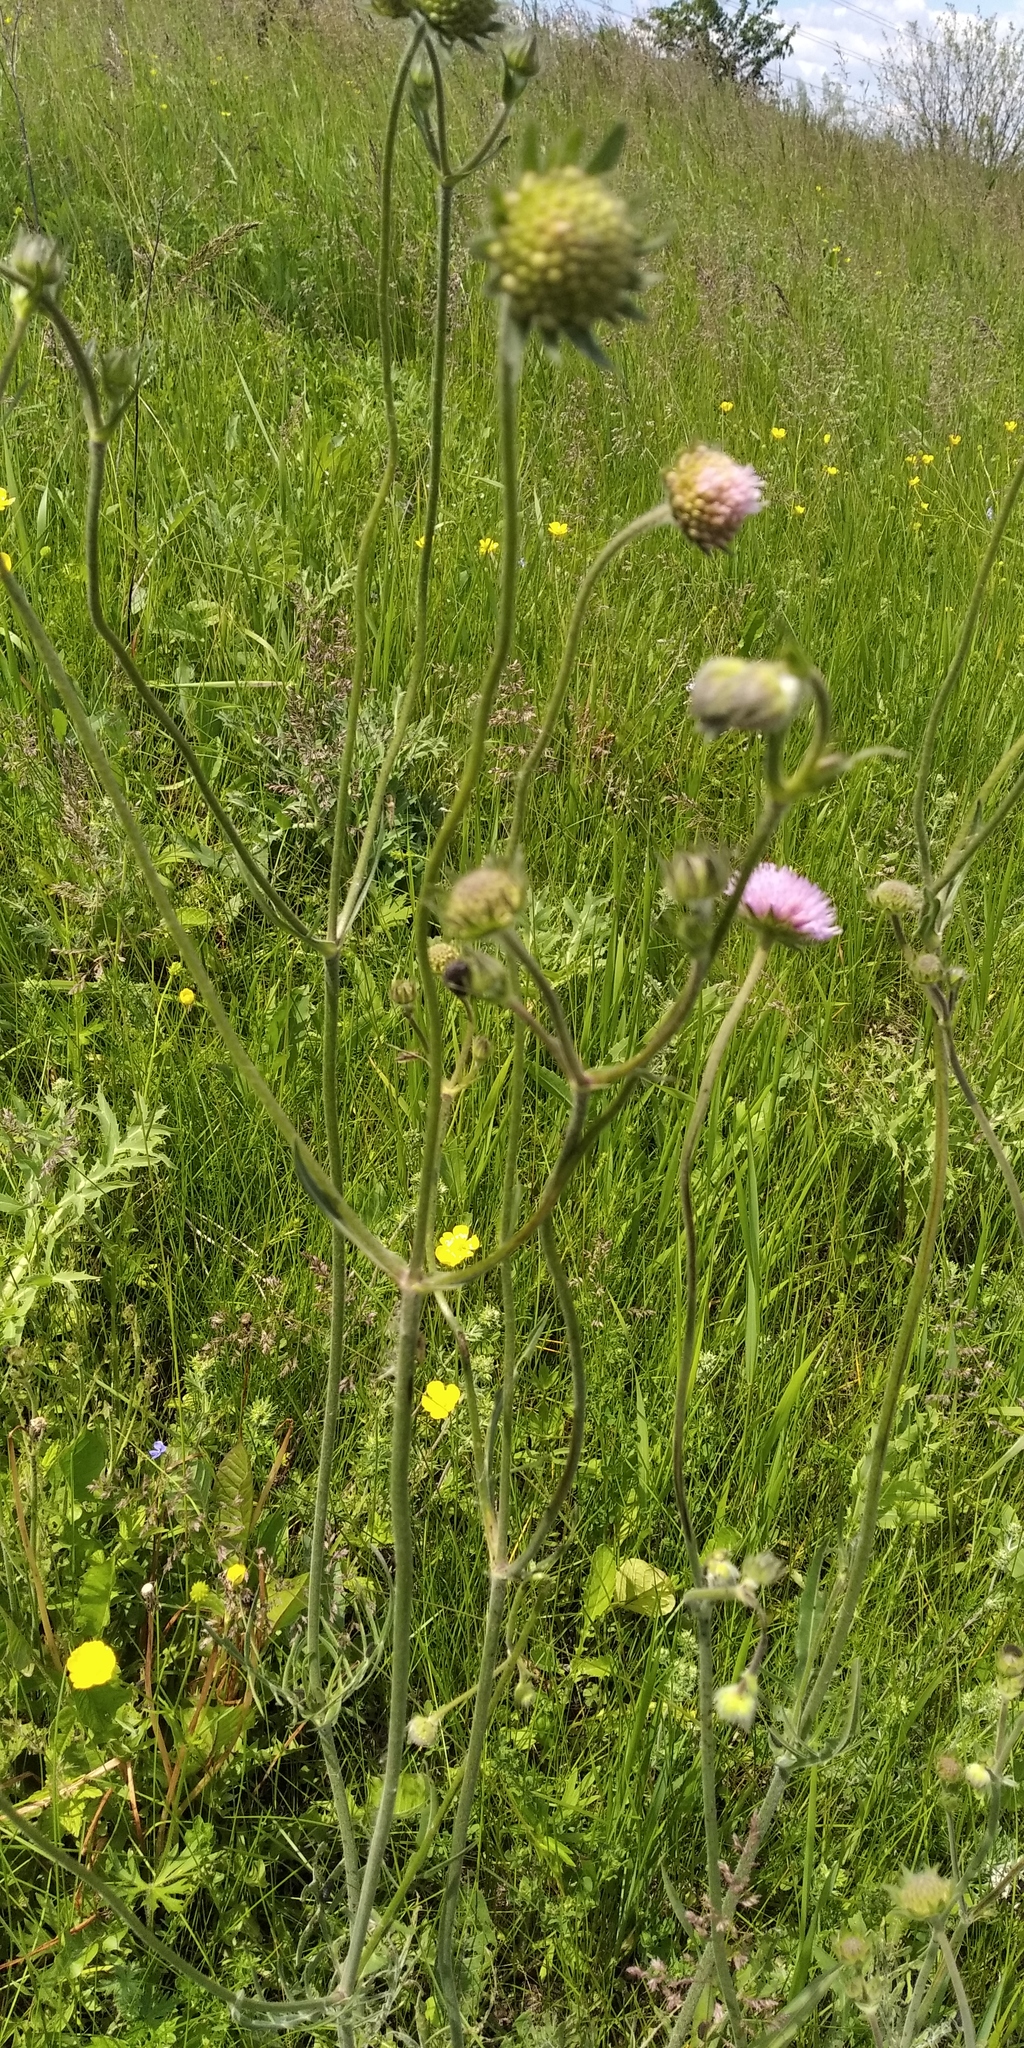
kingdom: Plantae
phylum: Tracheophyta
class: Magnoliopsida
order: Dipsacales
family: Caprifoliaceae
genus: Knautia
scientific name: Knautia arvensis
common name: Field scabiosa
